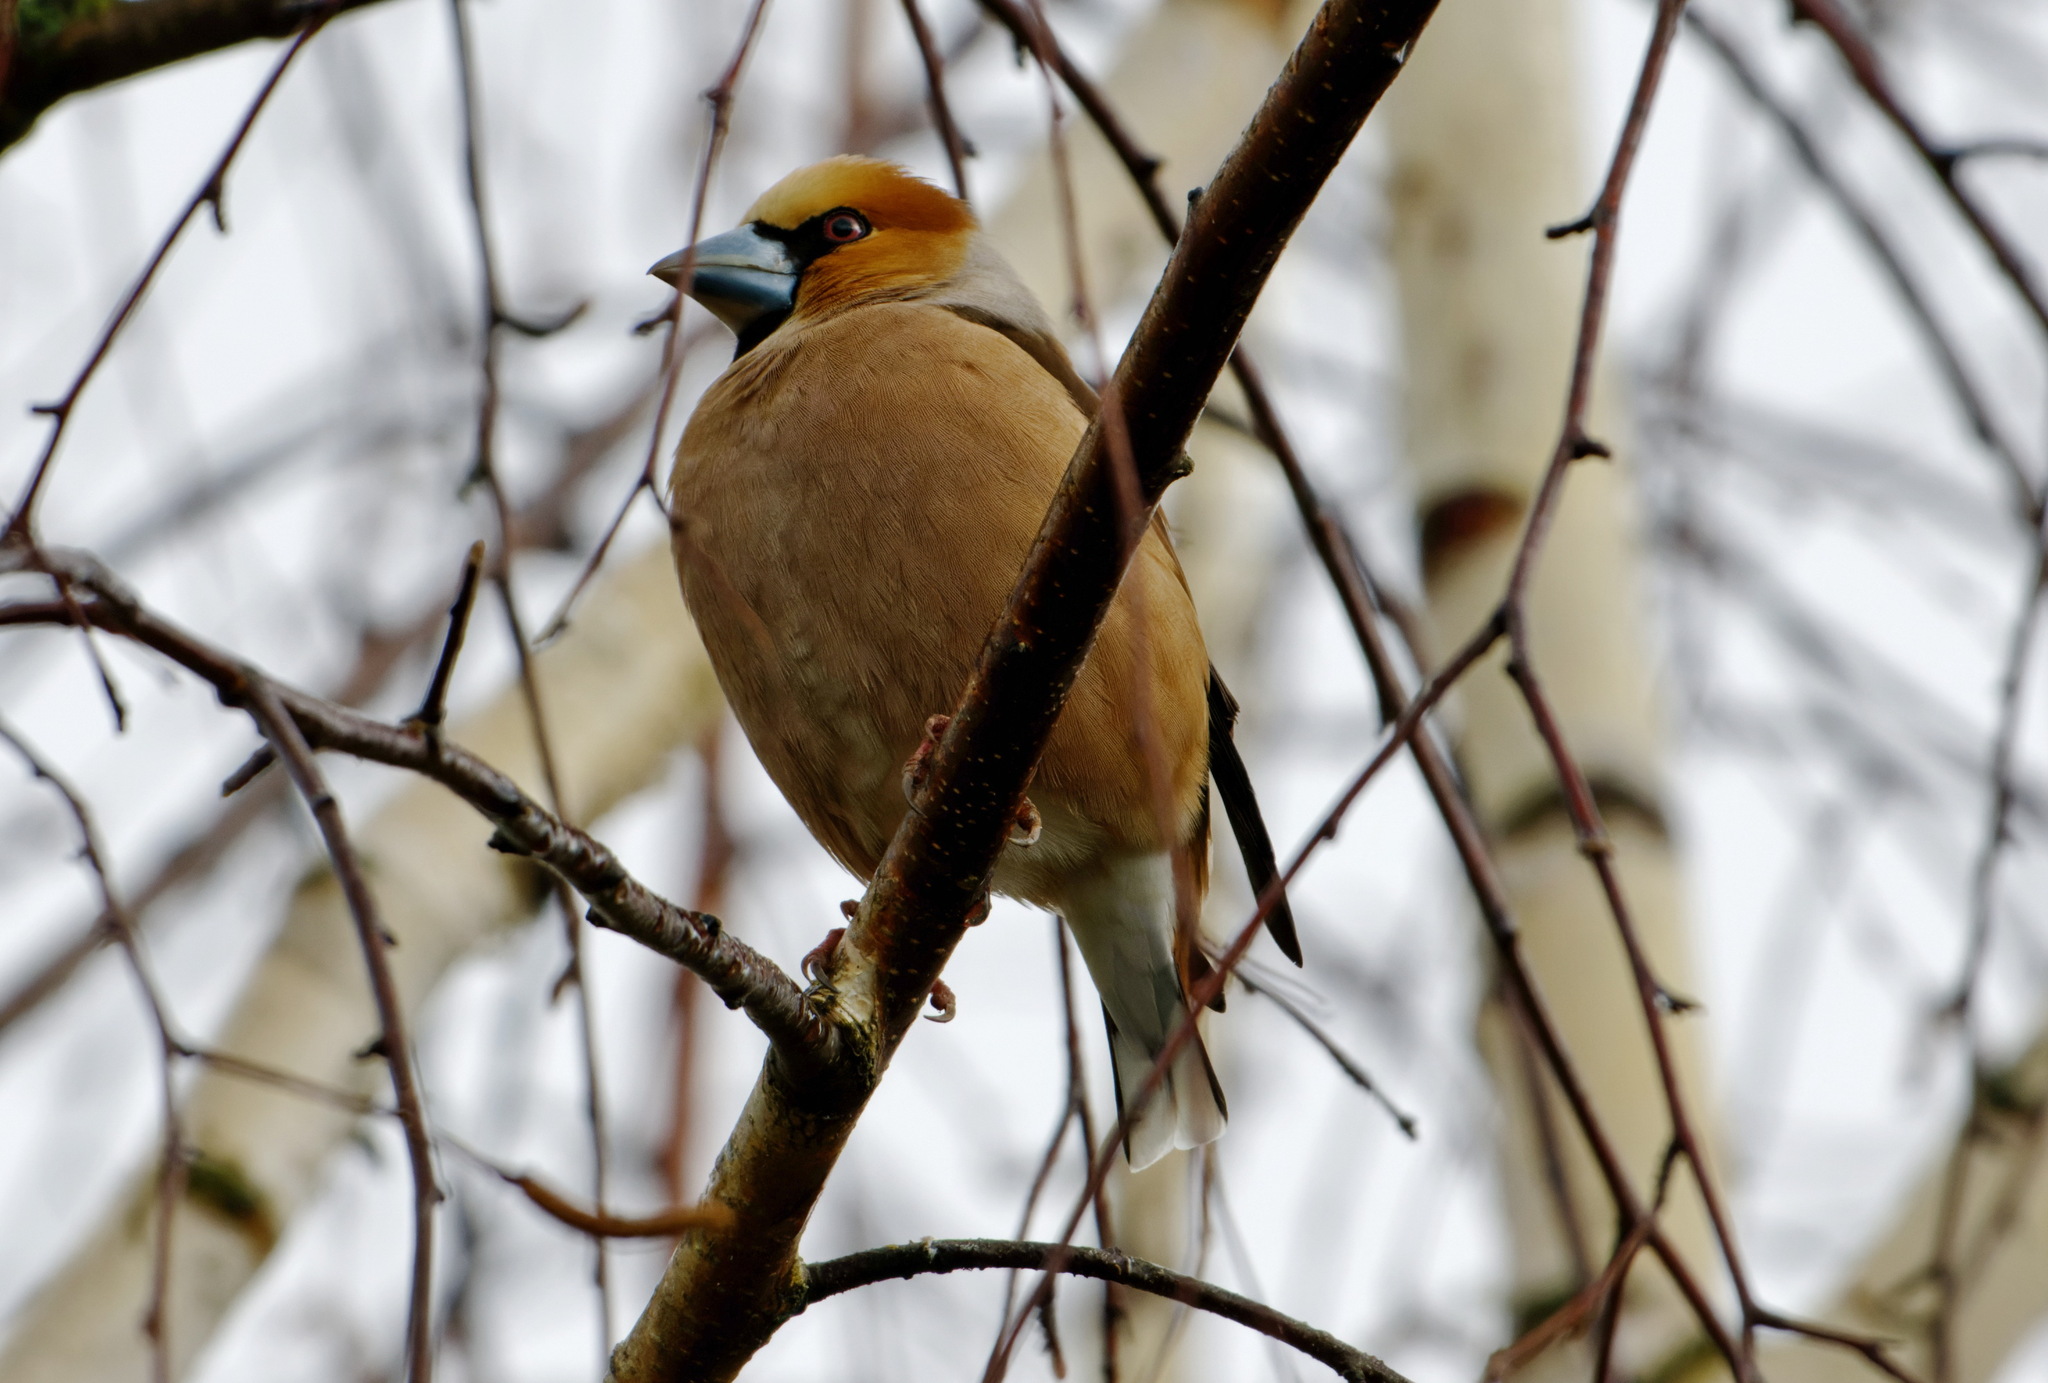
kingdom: Animalia
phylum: Chordata
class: Aves
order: Passeriformes
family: Fringillidae
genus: Coccothraustes
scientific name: Coccothraustes coccothraustes
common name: Hawfinch
